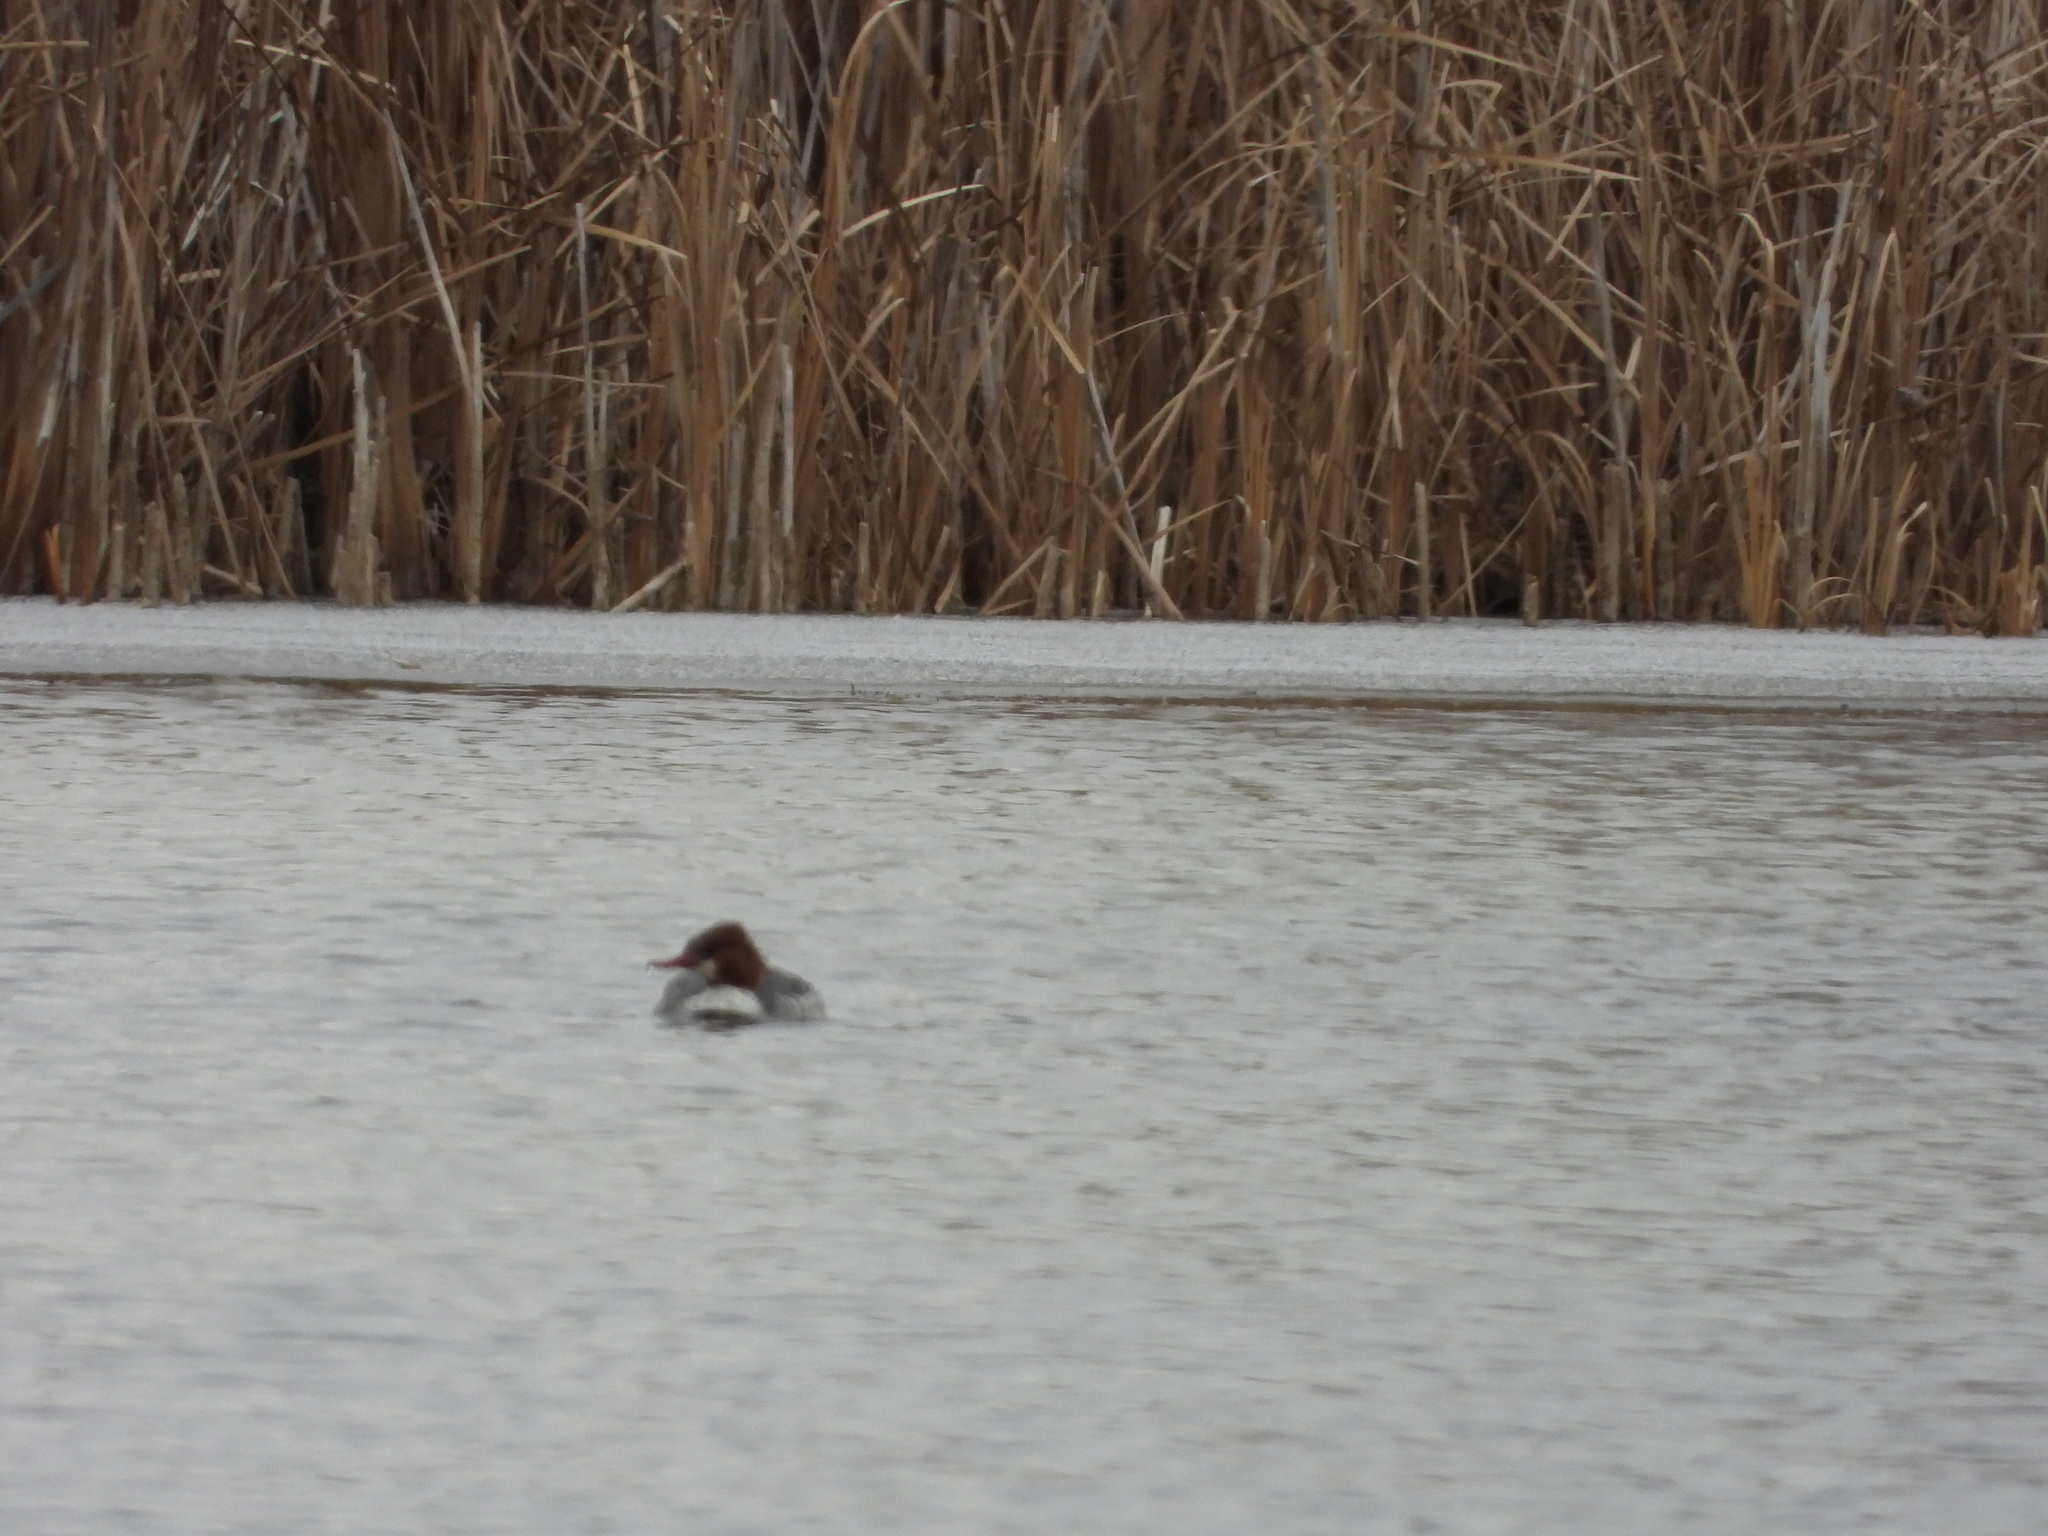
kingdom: Animalia
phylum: Chordata
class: Aves
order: Anseriformes
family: Anatidae
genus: Mergus
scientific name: Mergus merganser
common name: Common merganser
